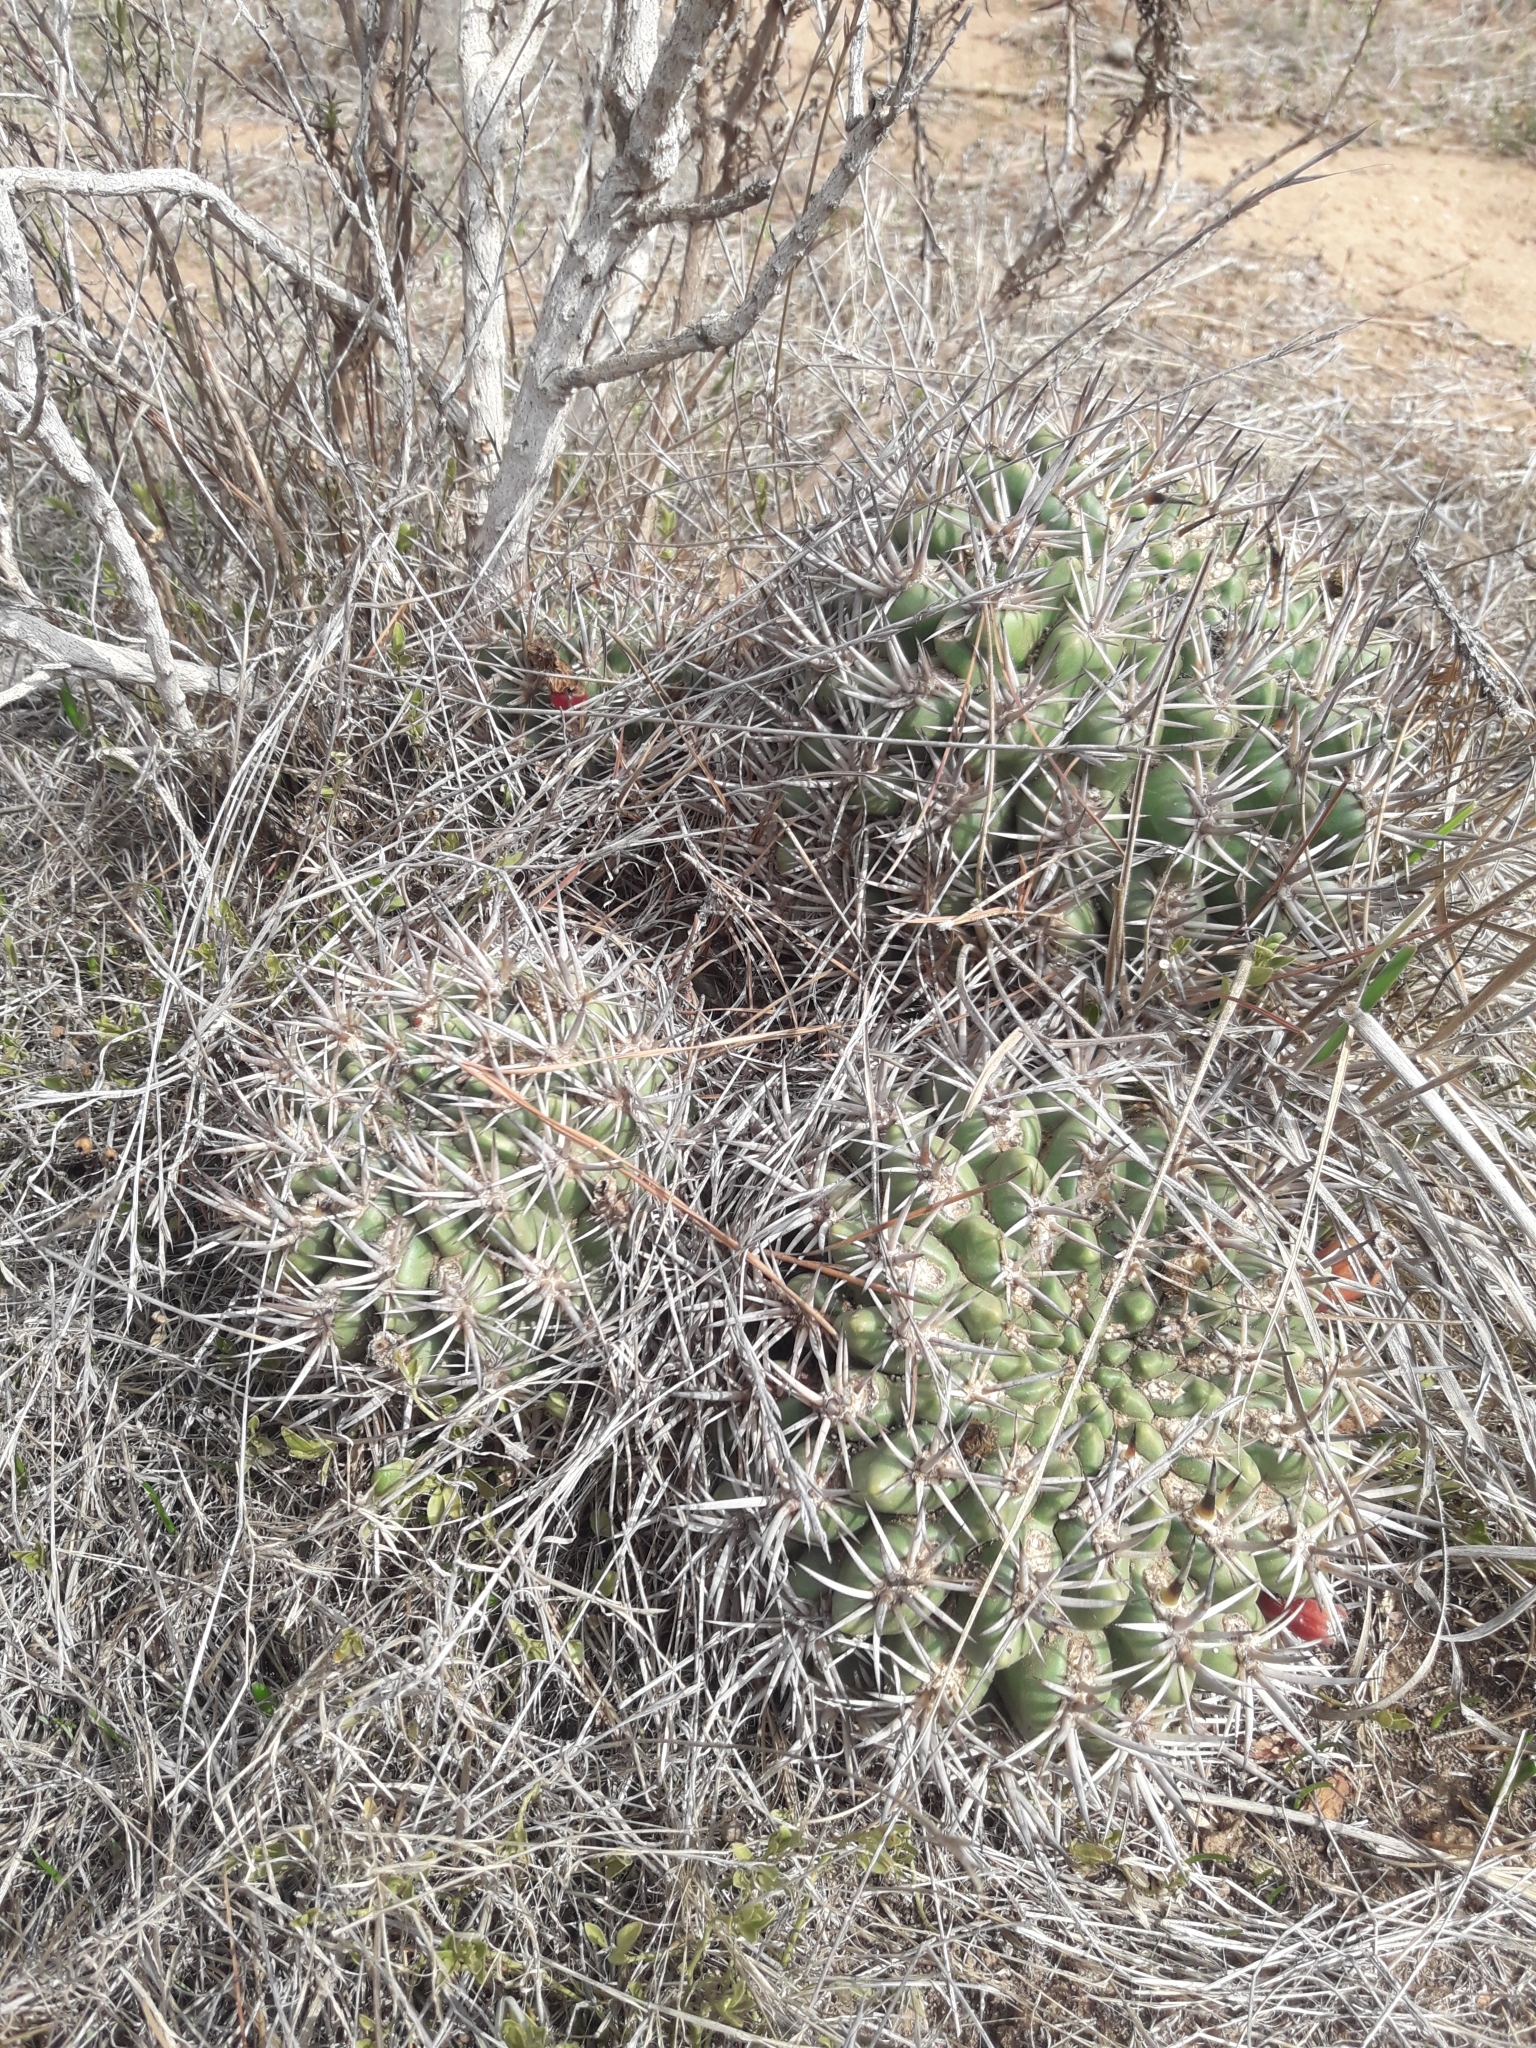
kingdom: Plantae
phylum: Tracheophyta
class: Magnoliopsida
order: Caryophyllales
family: Cactaceae
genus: Eriosyce
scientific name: Eriosyce
